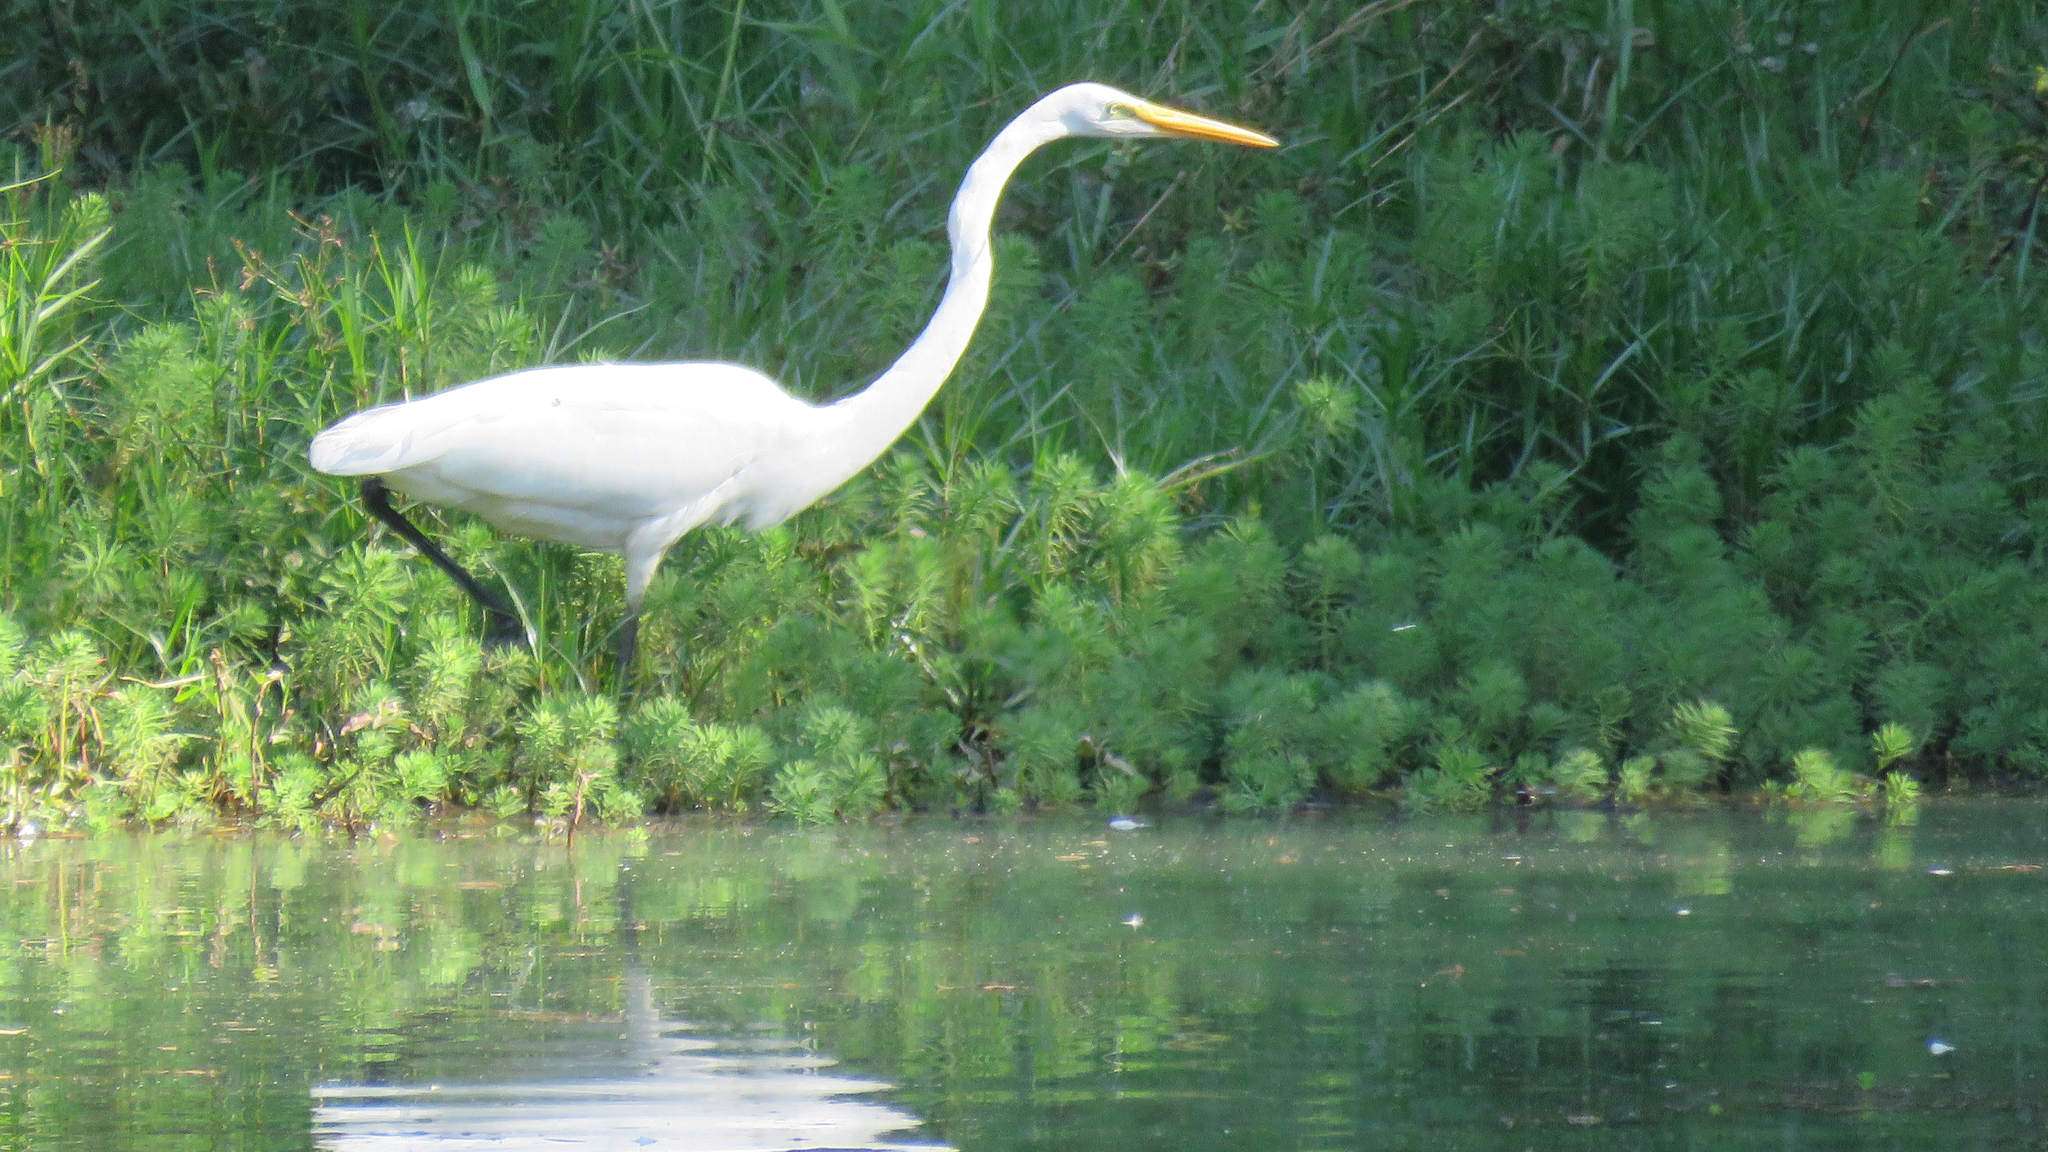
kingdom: Animalia
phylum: Chordata
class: Aves
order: Pelecaniformes
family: Ardeidae
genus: Ardea
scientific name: Ardea alba
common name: Great egret
